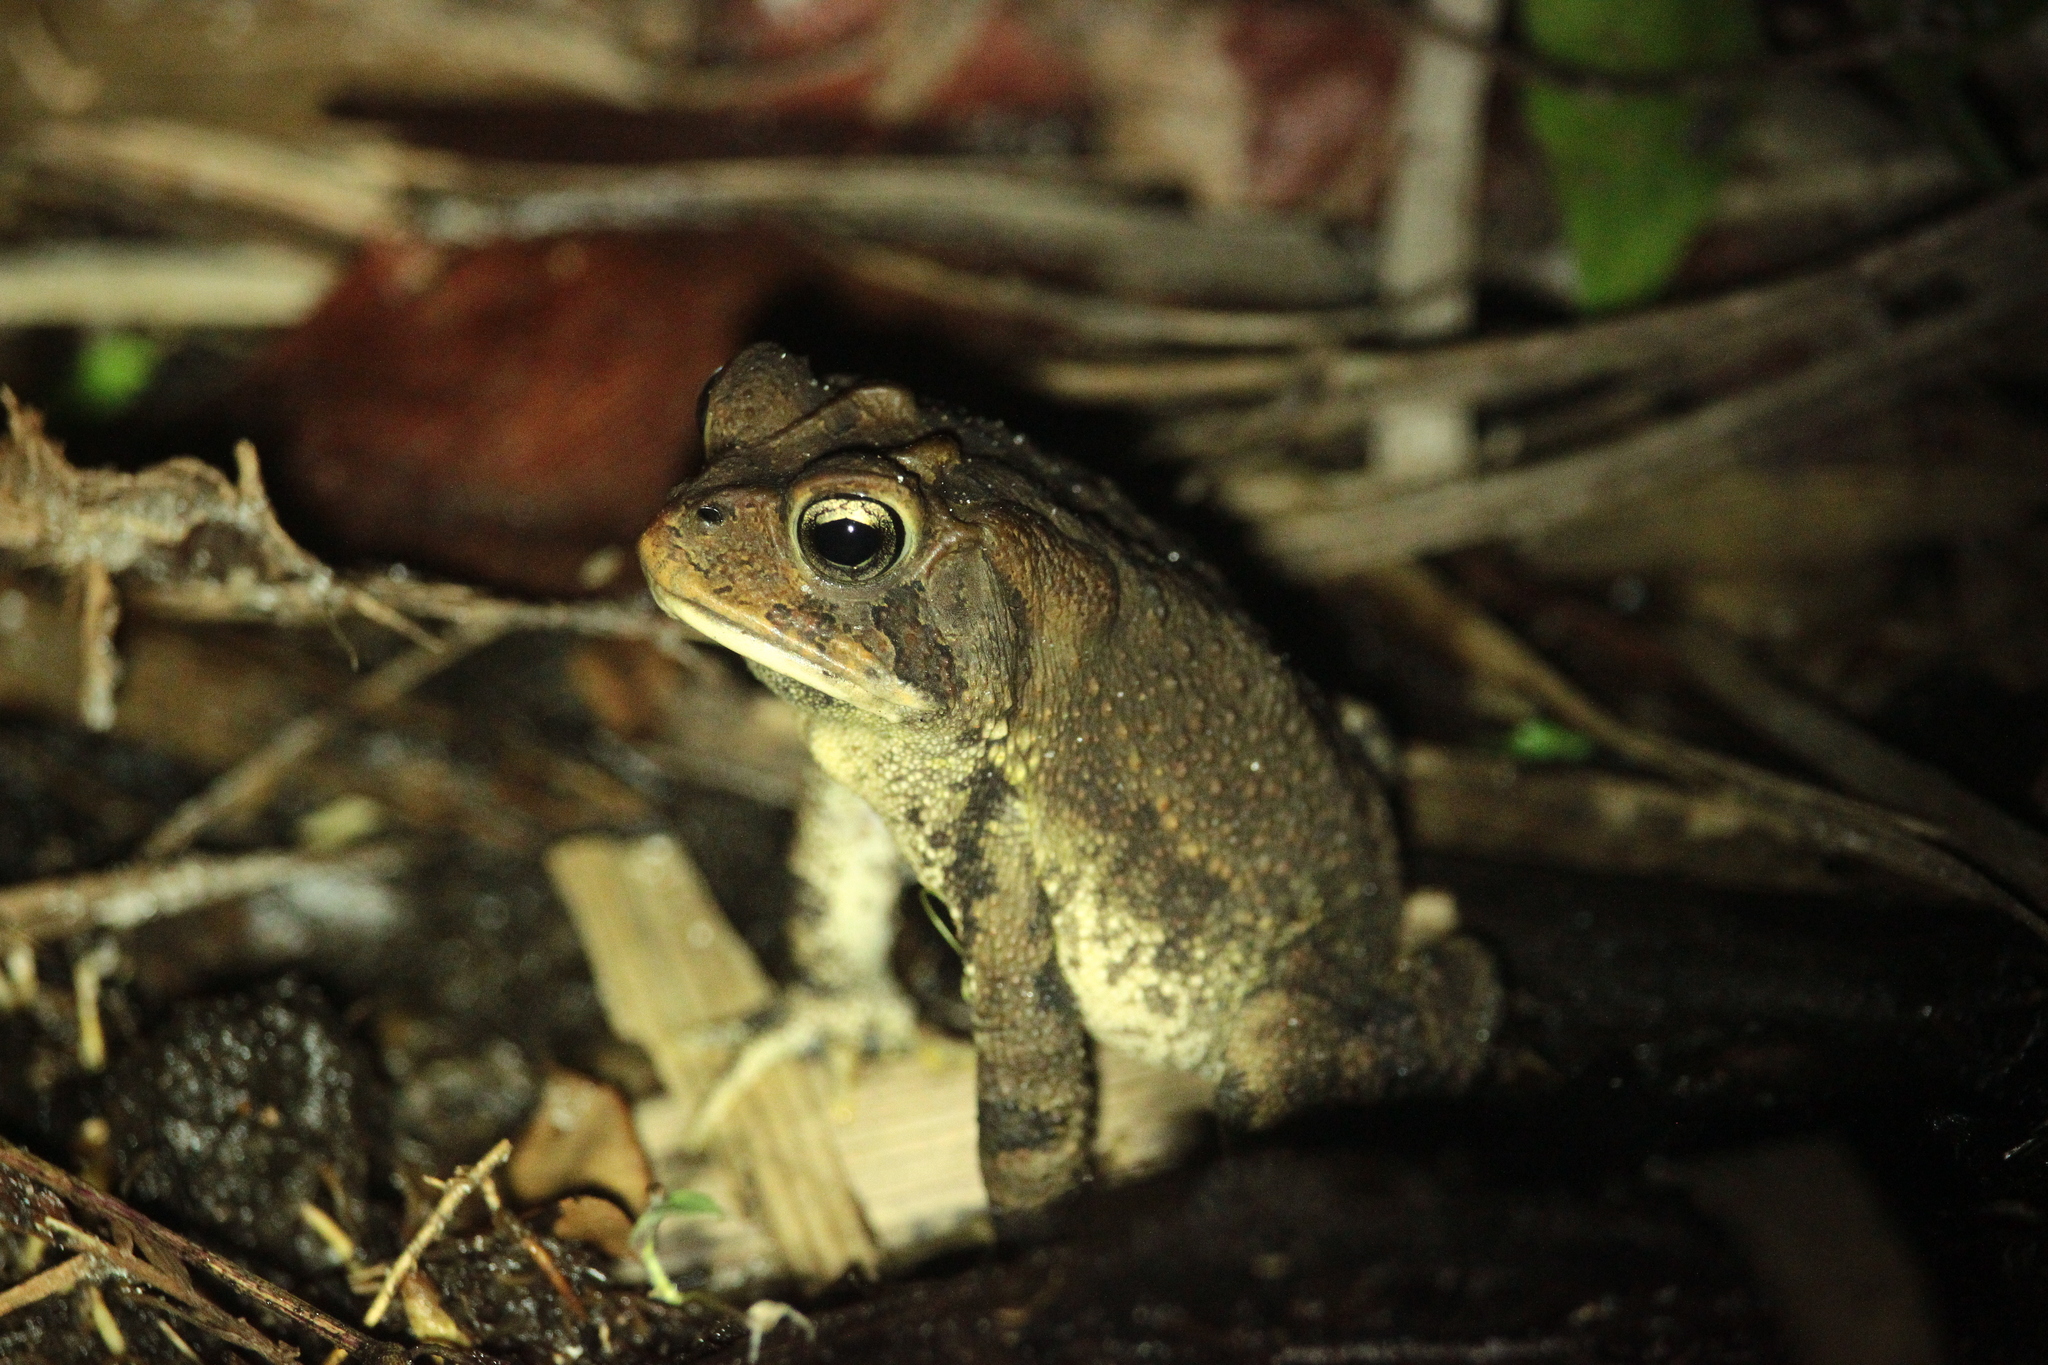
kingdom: Animalia
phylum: Chordata
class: Amphibia
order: Anura
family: Bufonidae
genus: Anaxyrus
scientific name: Anaxyrus terrestris
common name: Southern toad
